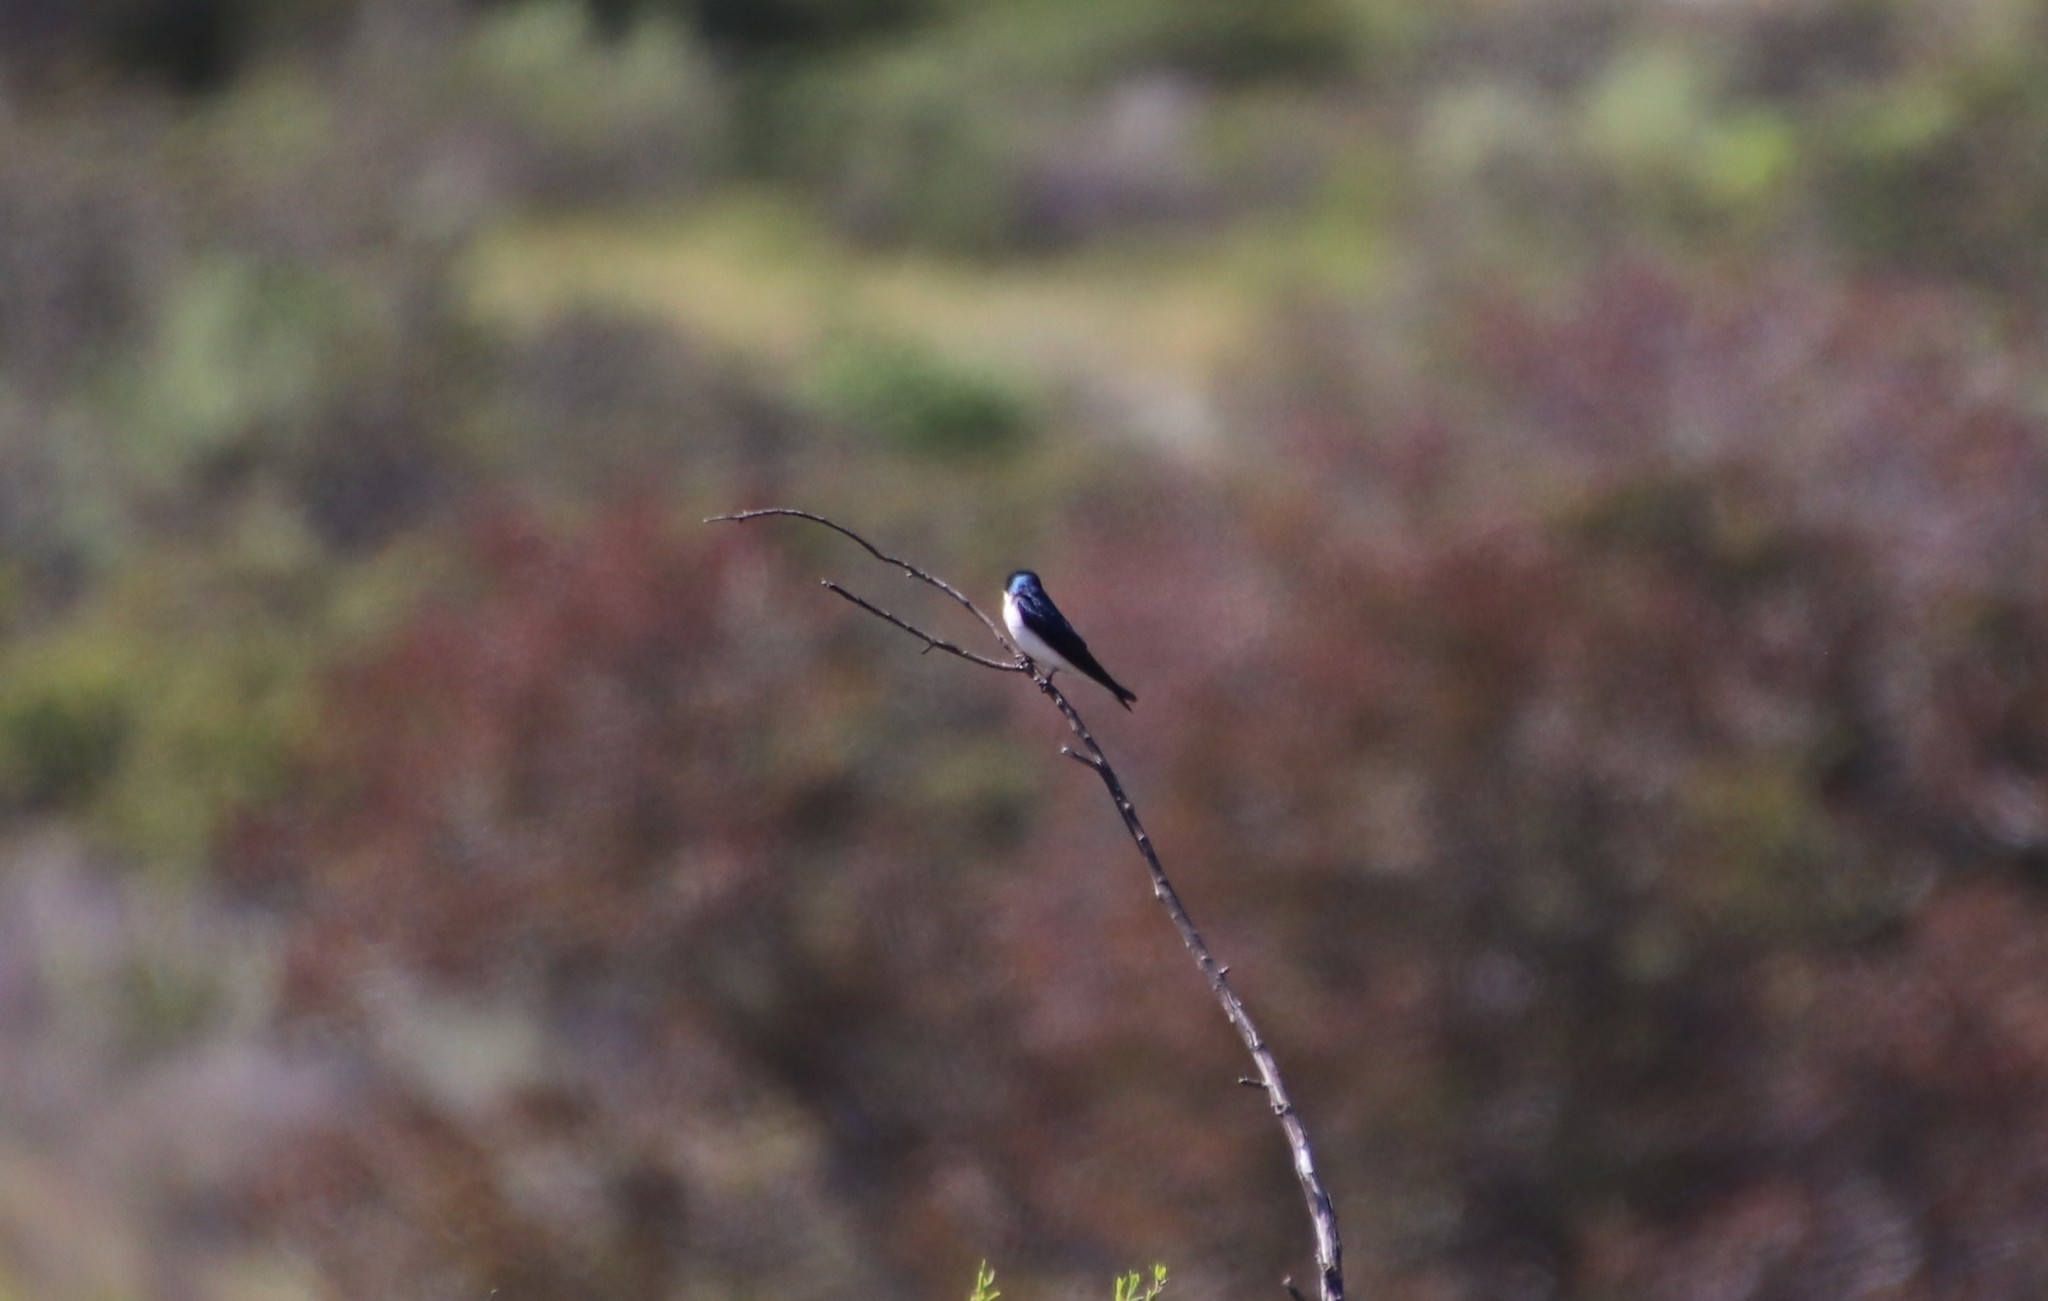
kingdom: Animalia
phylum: Chordata
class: Aves
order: Passeriformes
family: Hirundinidae
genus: Tachycineta
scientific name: Tachycineta bicolor
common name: Tree swallow
